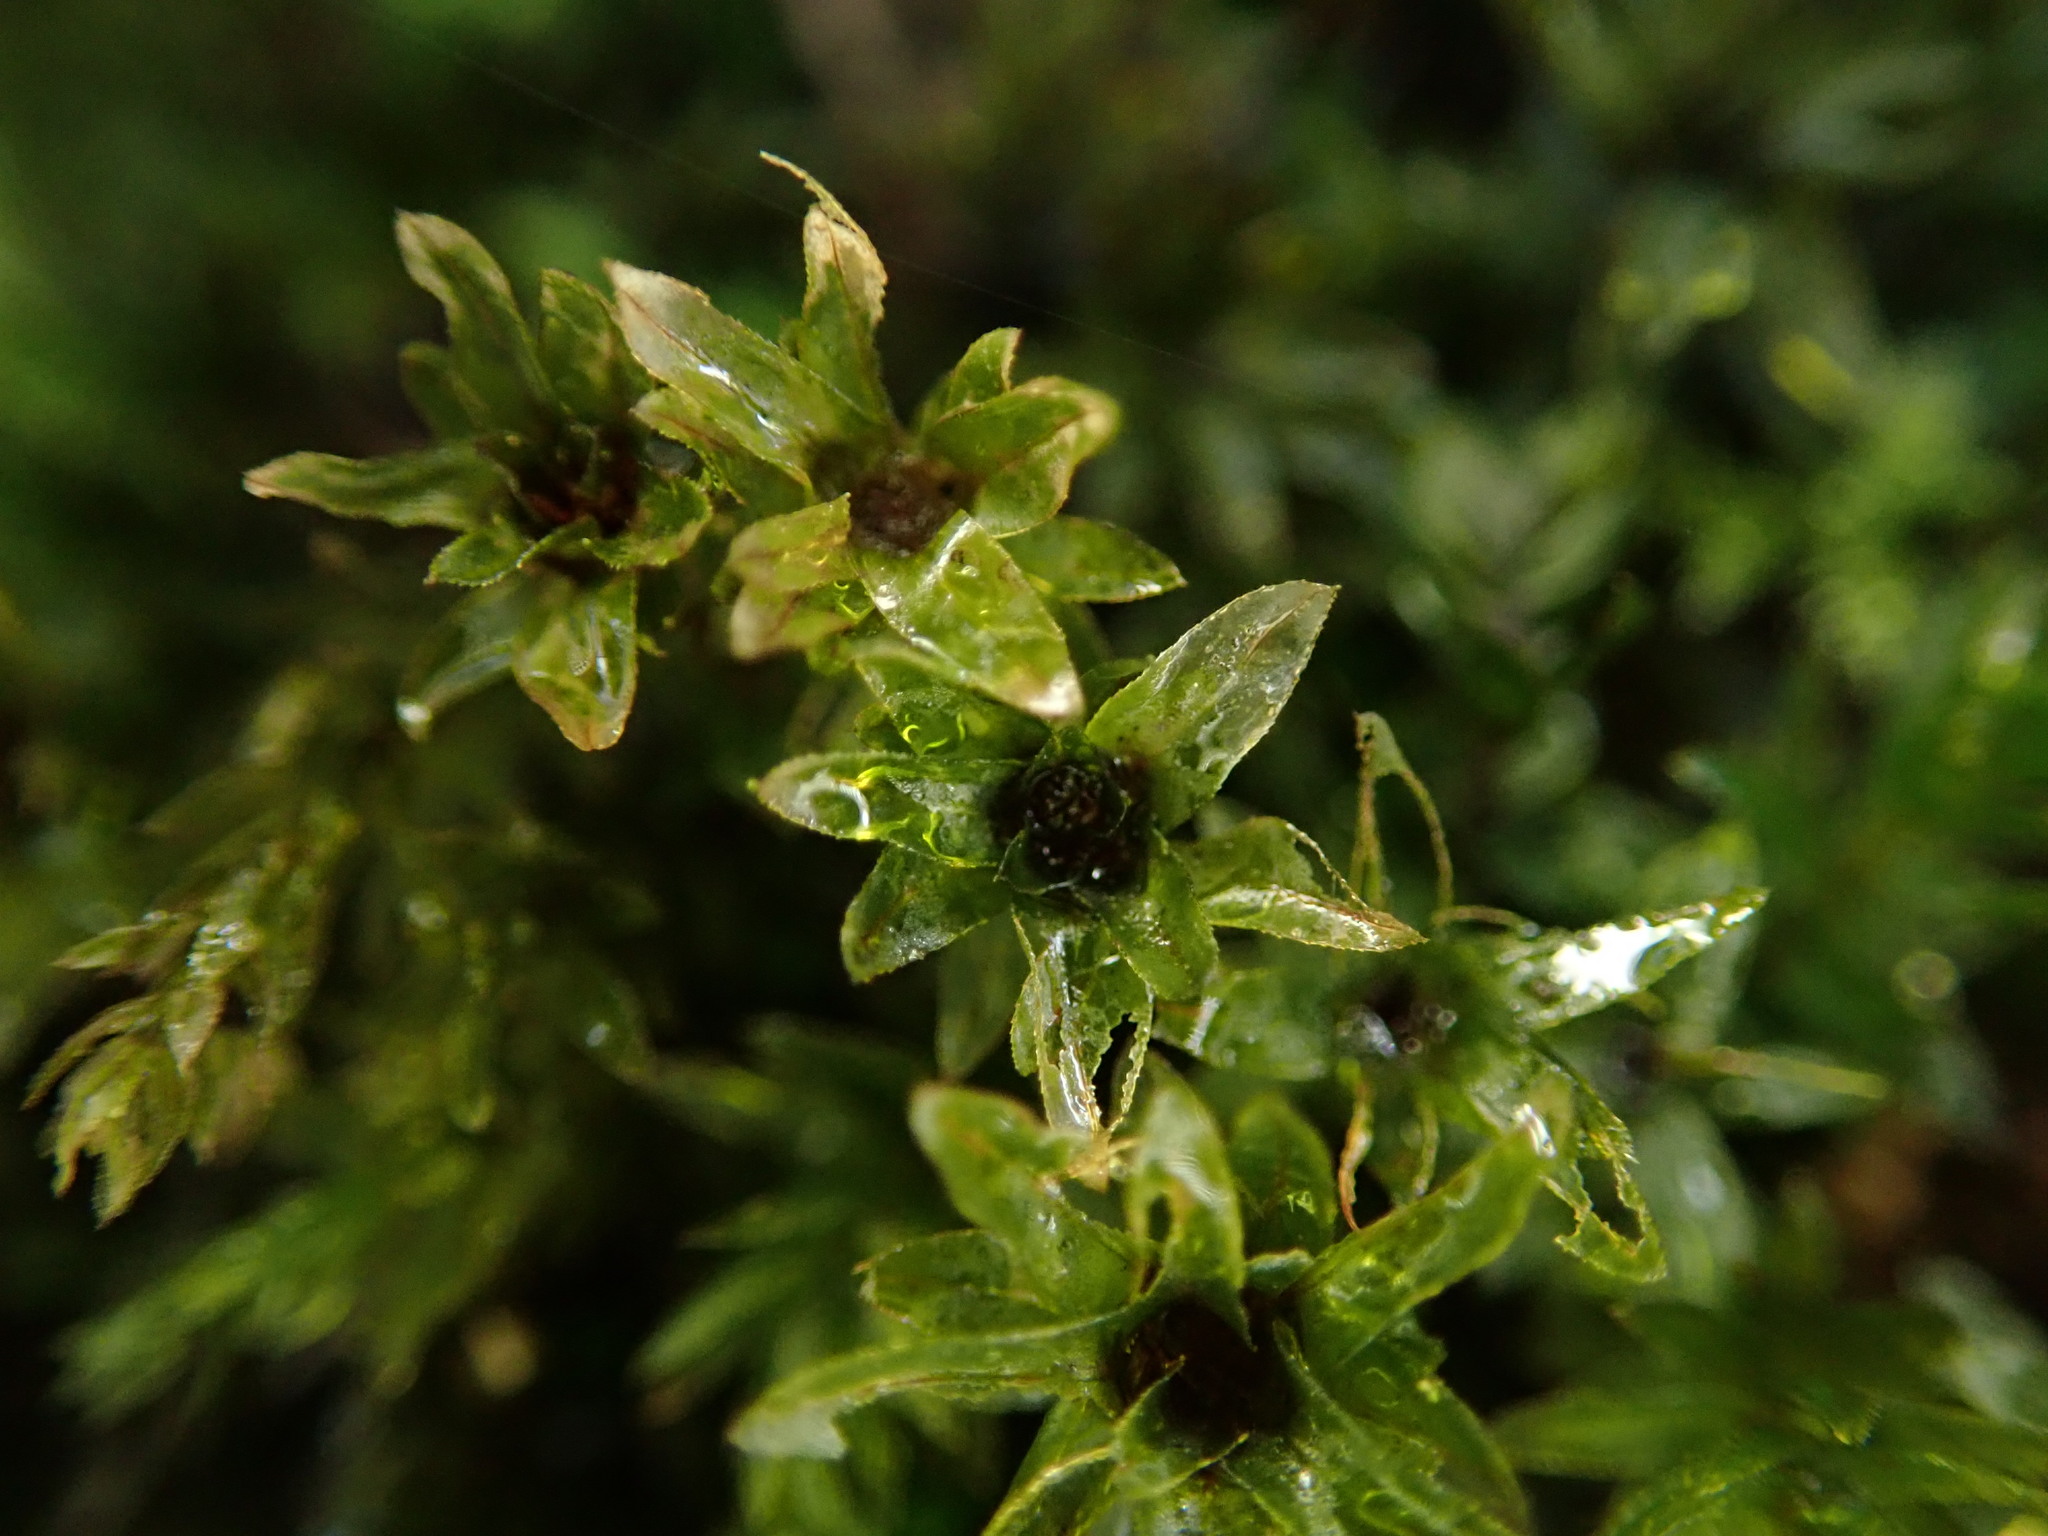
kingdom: Plantae
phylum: Bryophyta
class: Bryopsida
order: Bryales
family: Mniaceae
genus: Mnium
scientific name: Mnium hornum
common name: Swan's-neck leafy moss
